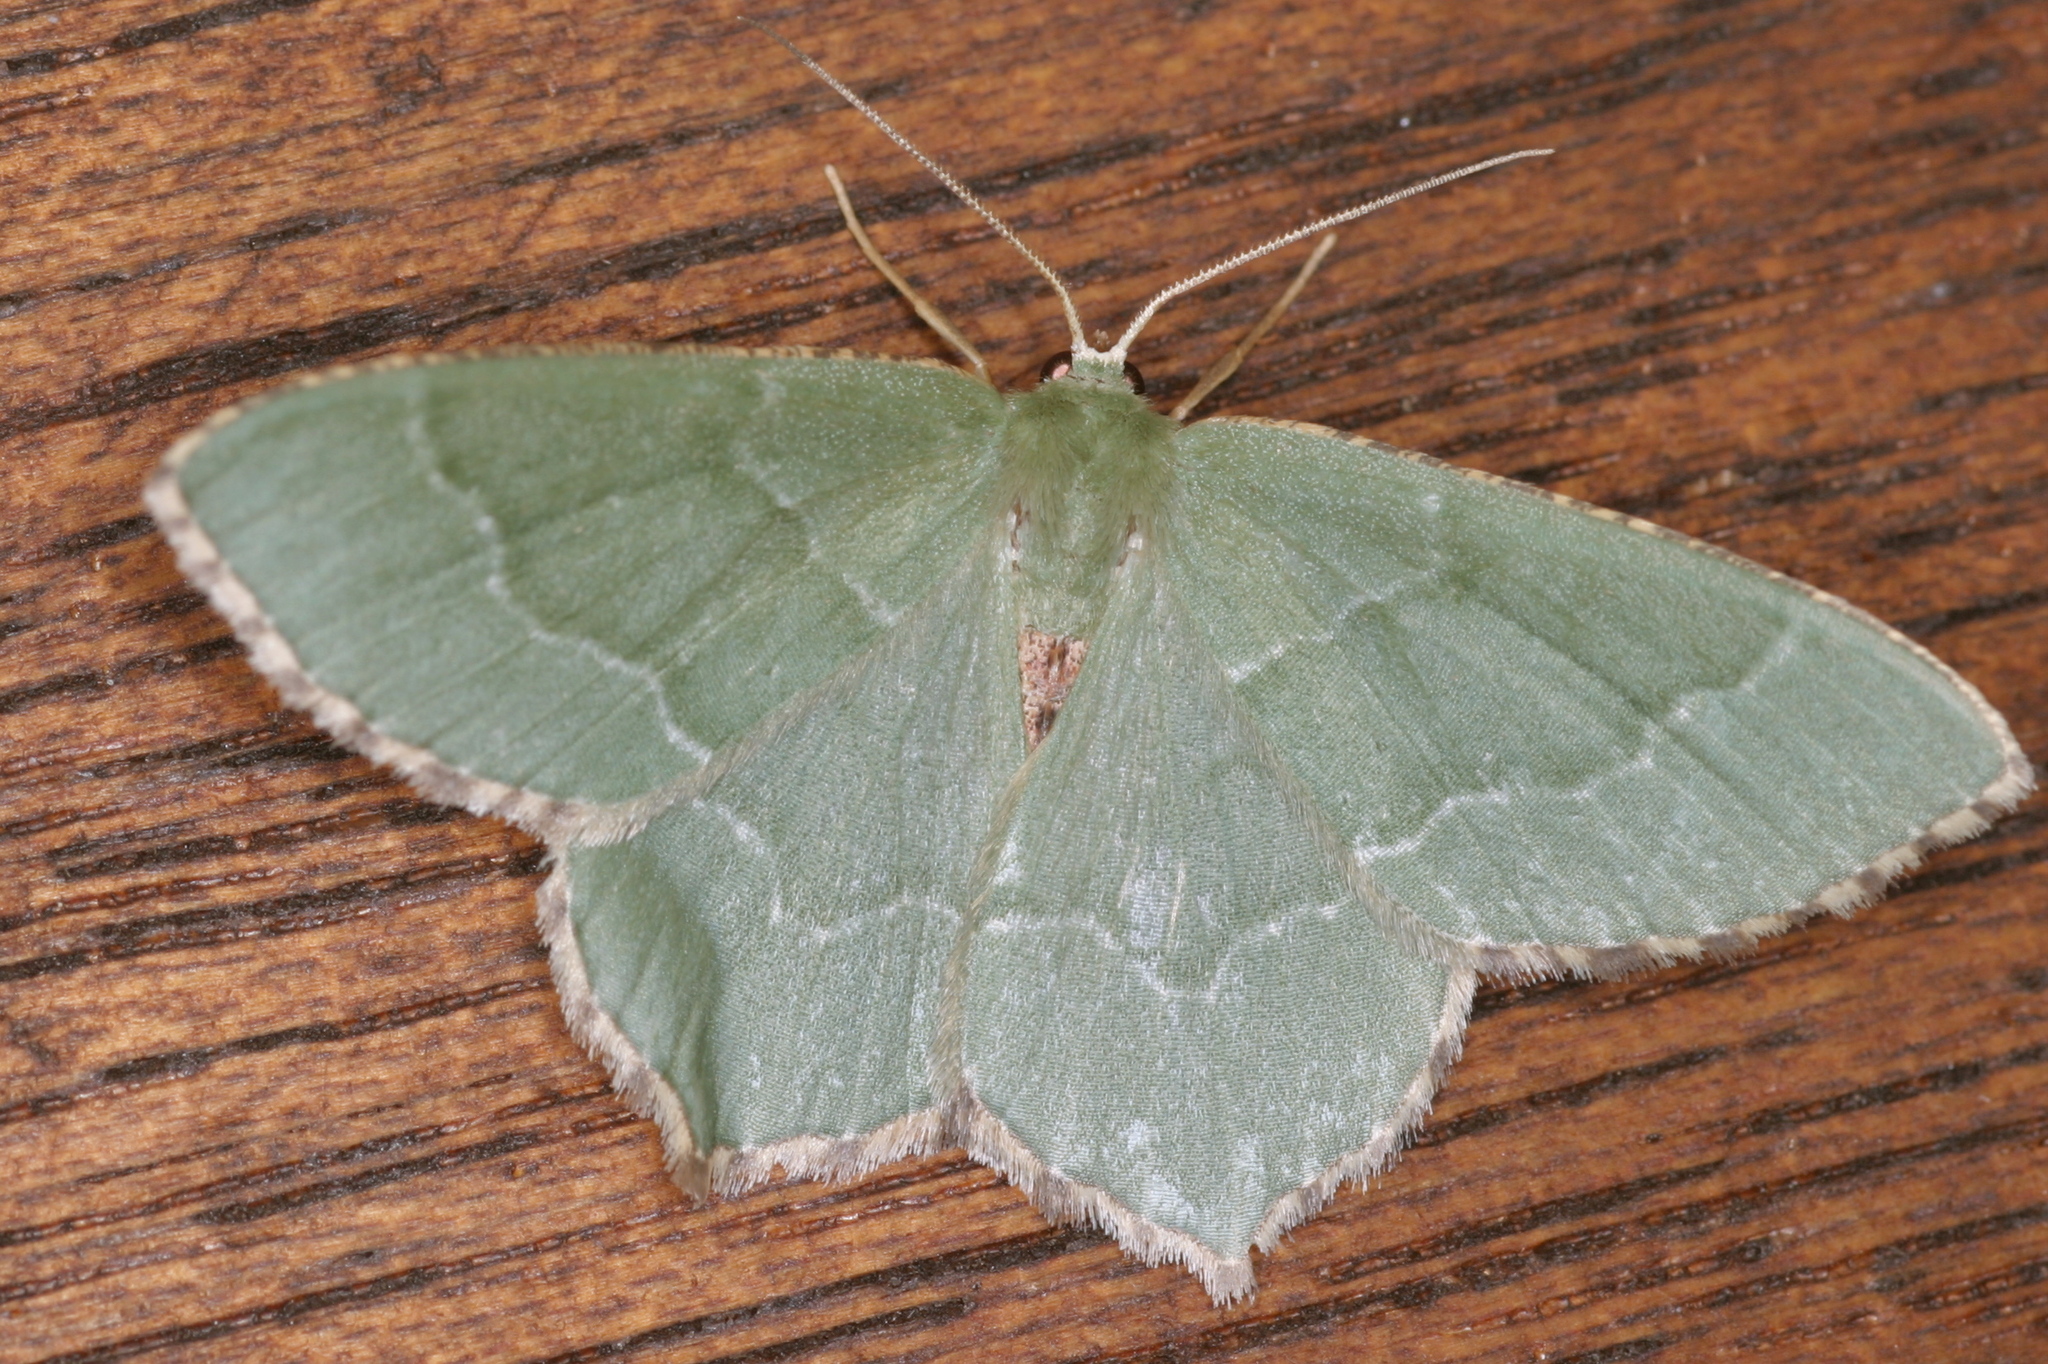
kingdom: Animalia
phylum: Arthropoda
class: Insecta
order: Lepidoptera
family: Geometridae
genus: Hemithea
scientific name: Hemithea aestivaria
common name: Common emerald
